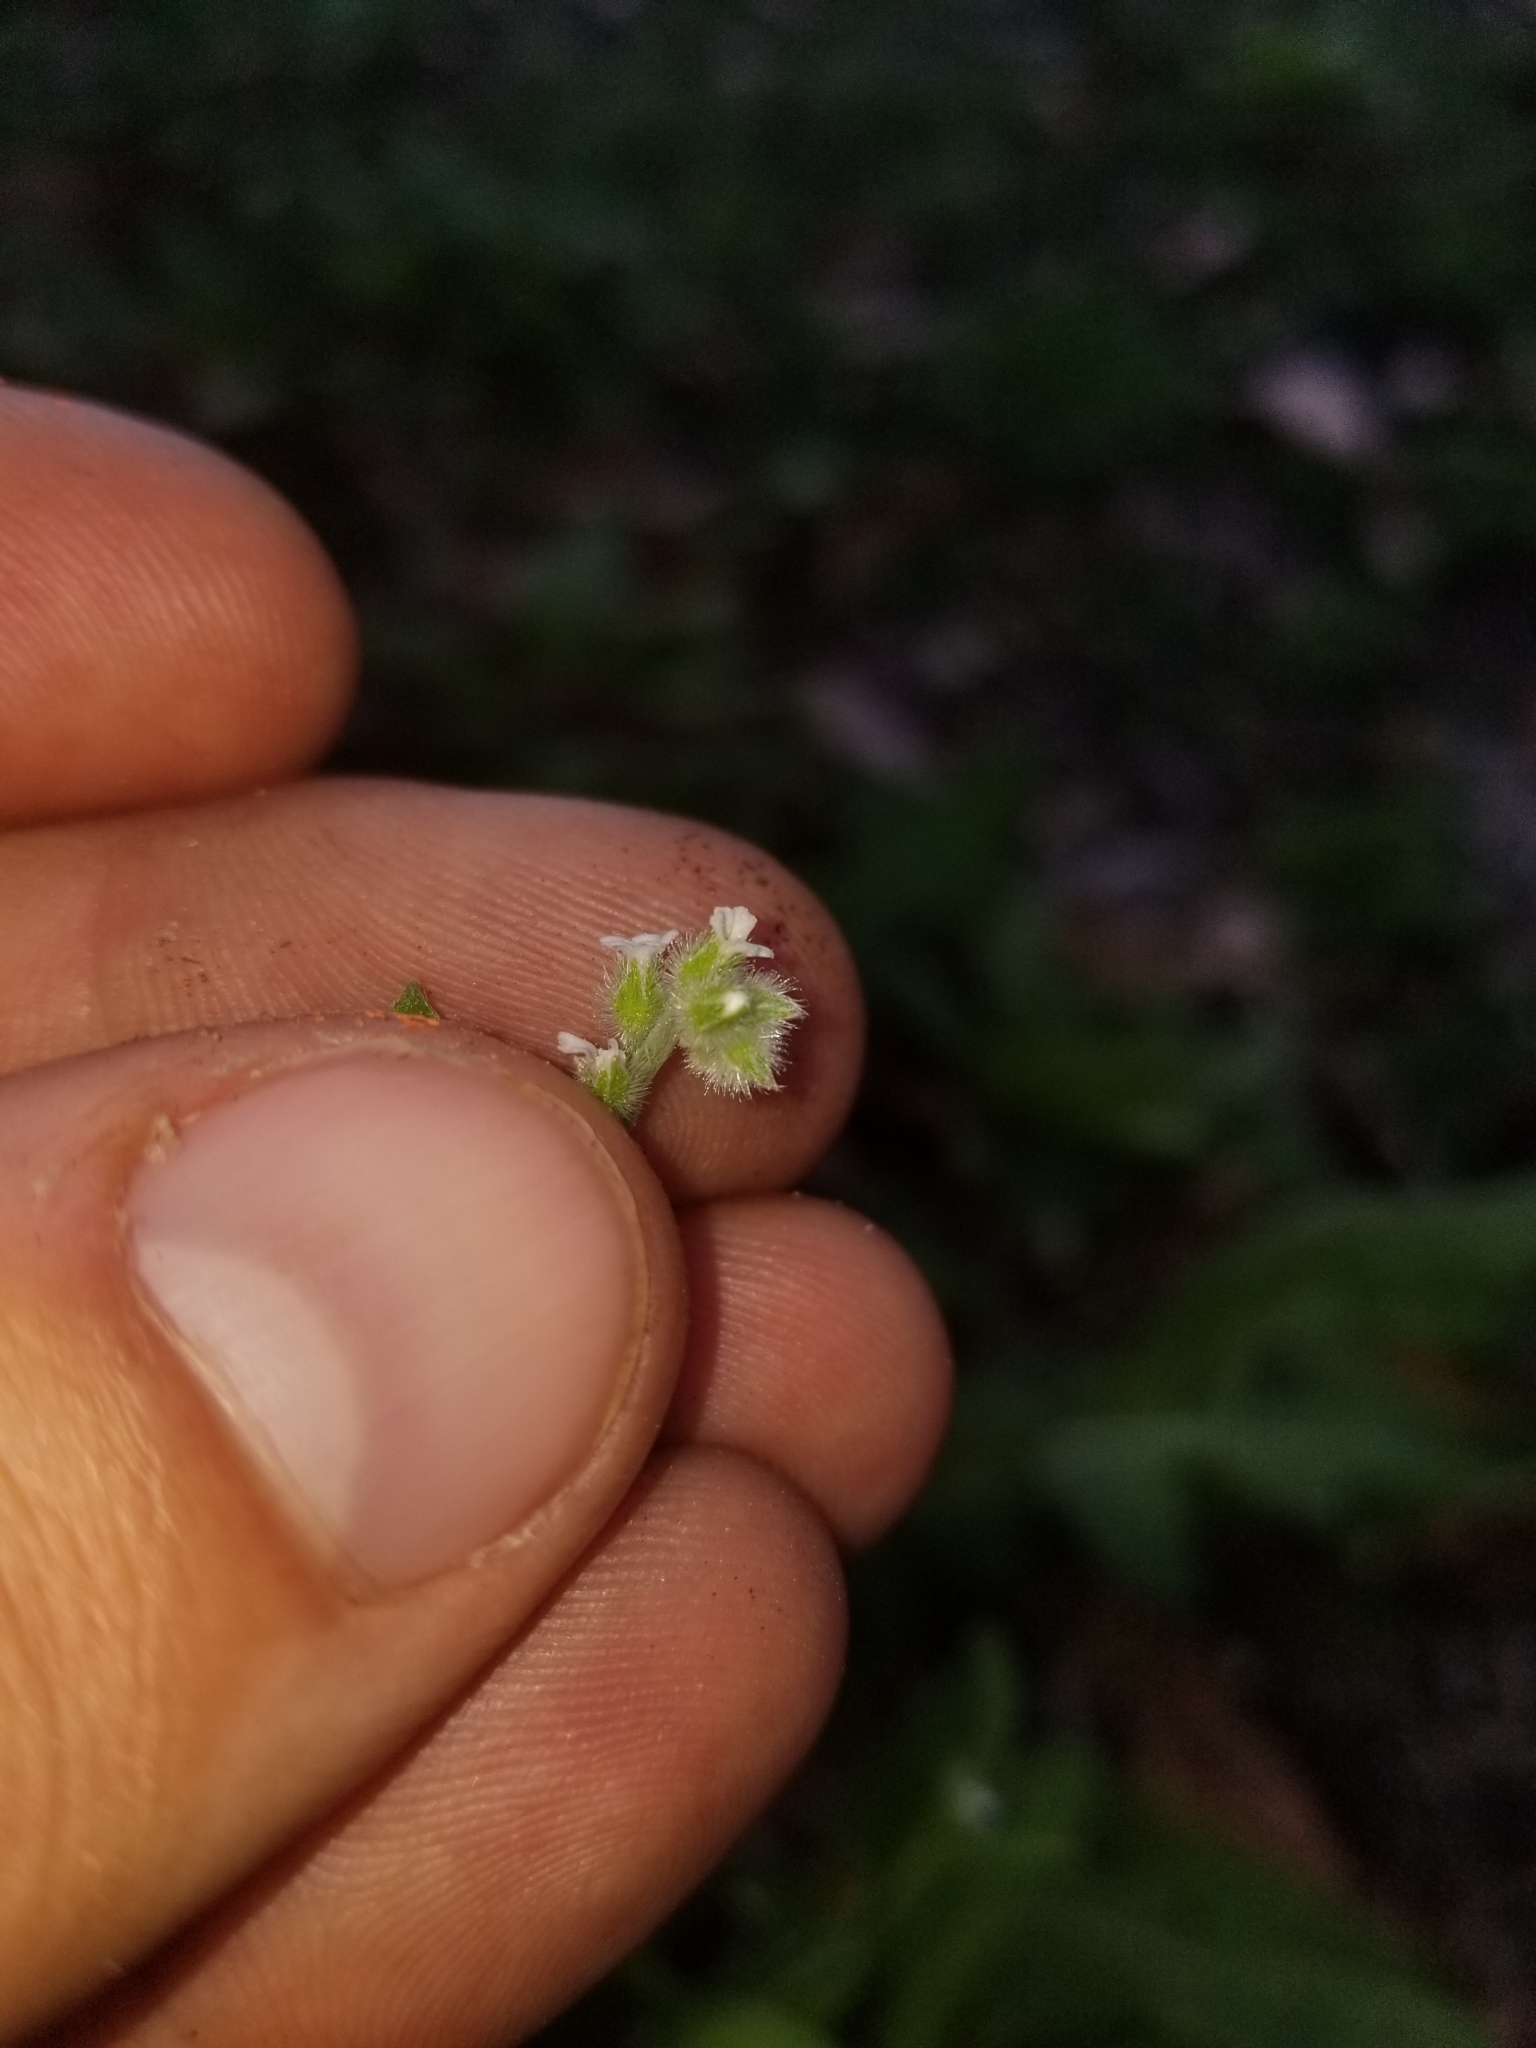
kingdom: Plantae
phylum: Tracheophyta
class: Magnoliopsida
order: Boraginales
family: Boraginaceae
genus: Myosotis
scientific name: Myosotis macrosperma
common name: Large-seed forget-me-not
